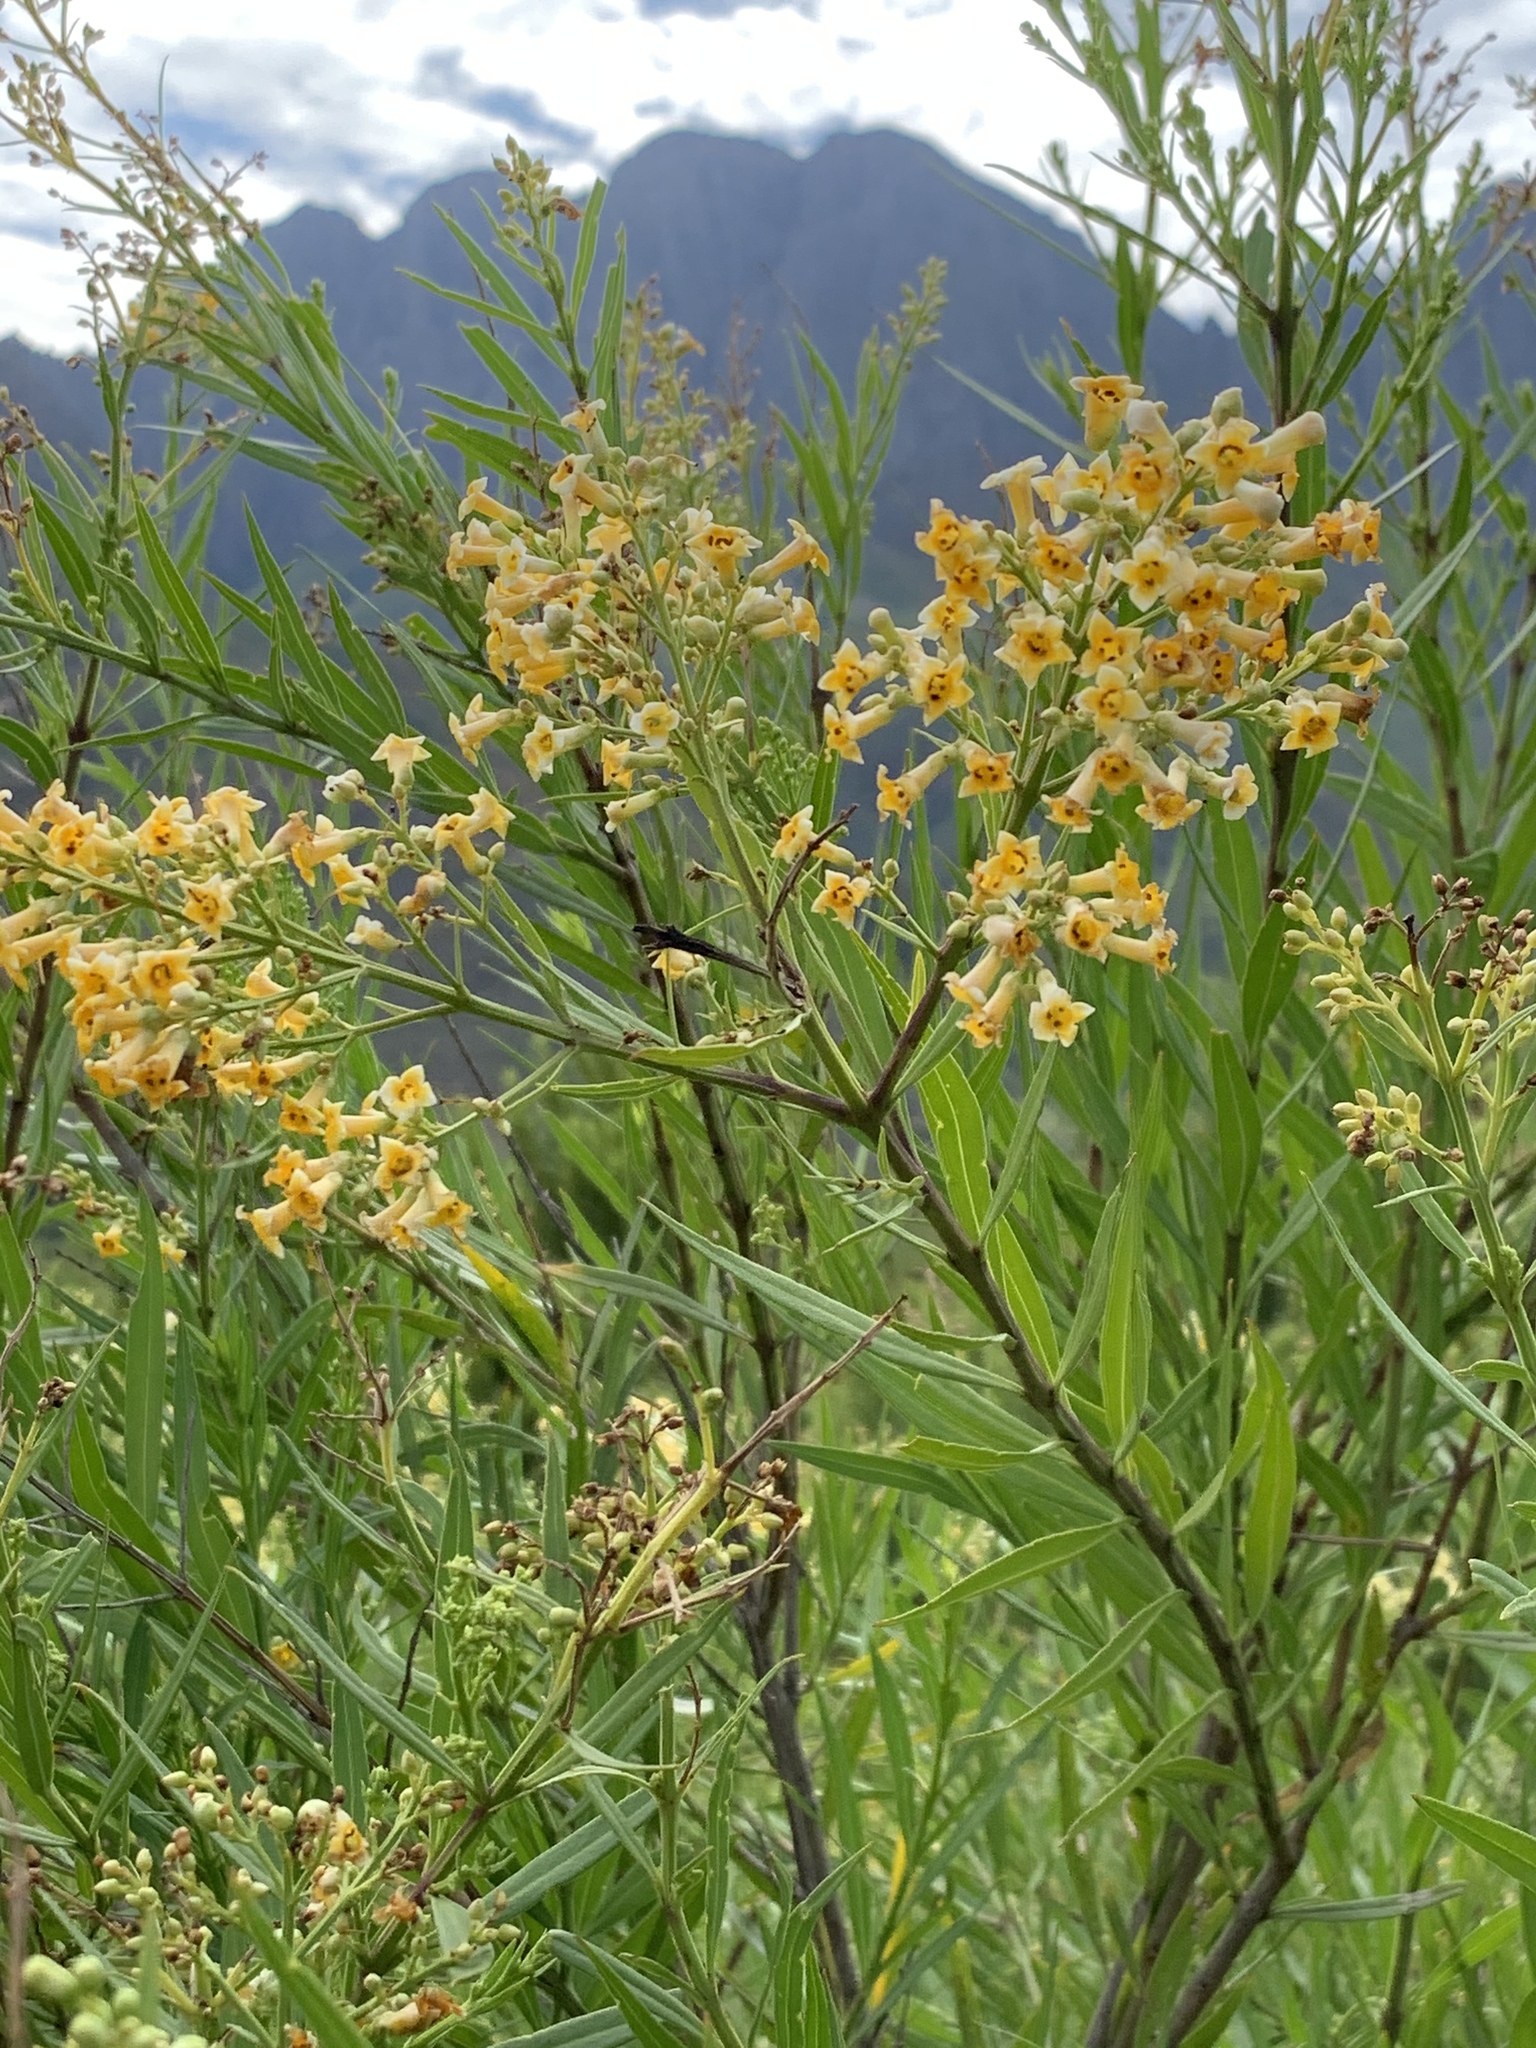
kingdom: Plantae
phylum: Tracheophyta
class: Magnoliopsida
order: Lamiales
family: Scrophulariaceae
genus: Freylinia
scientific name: Freylinia lanceolata
